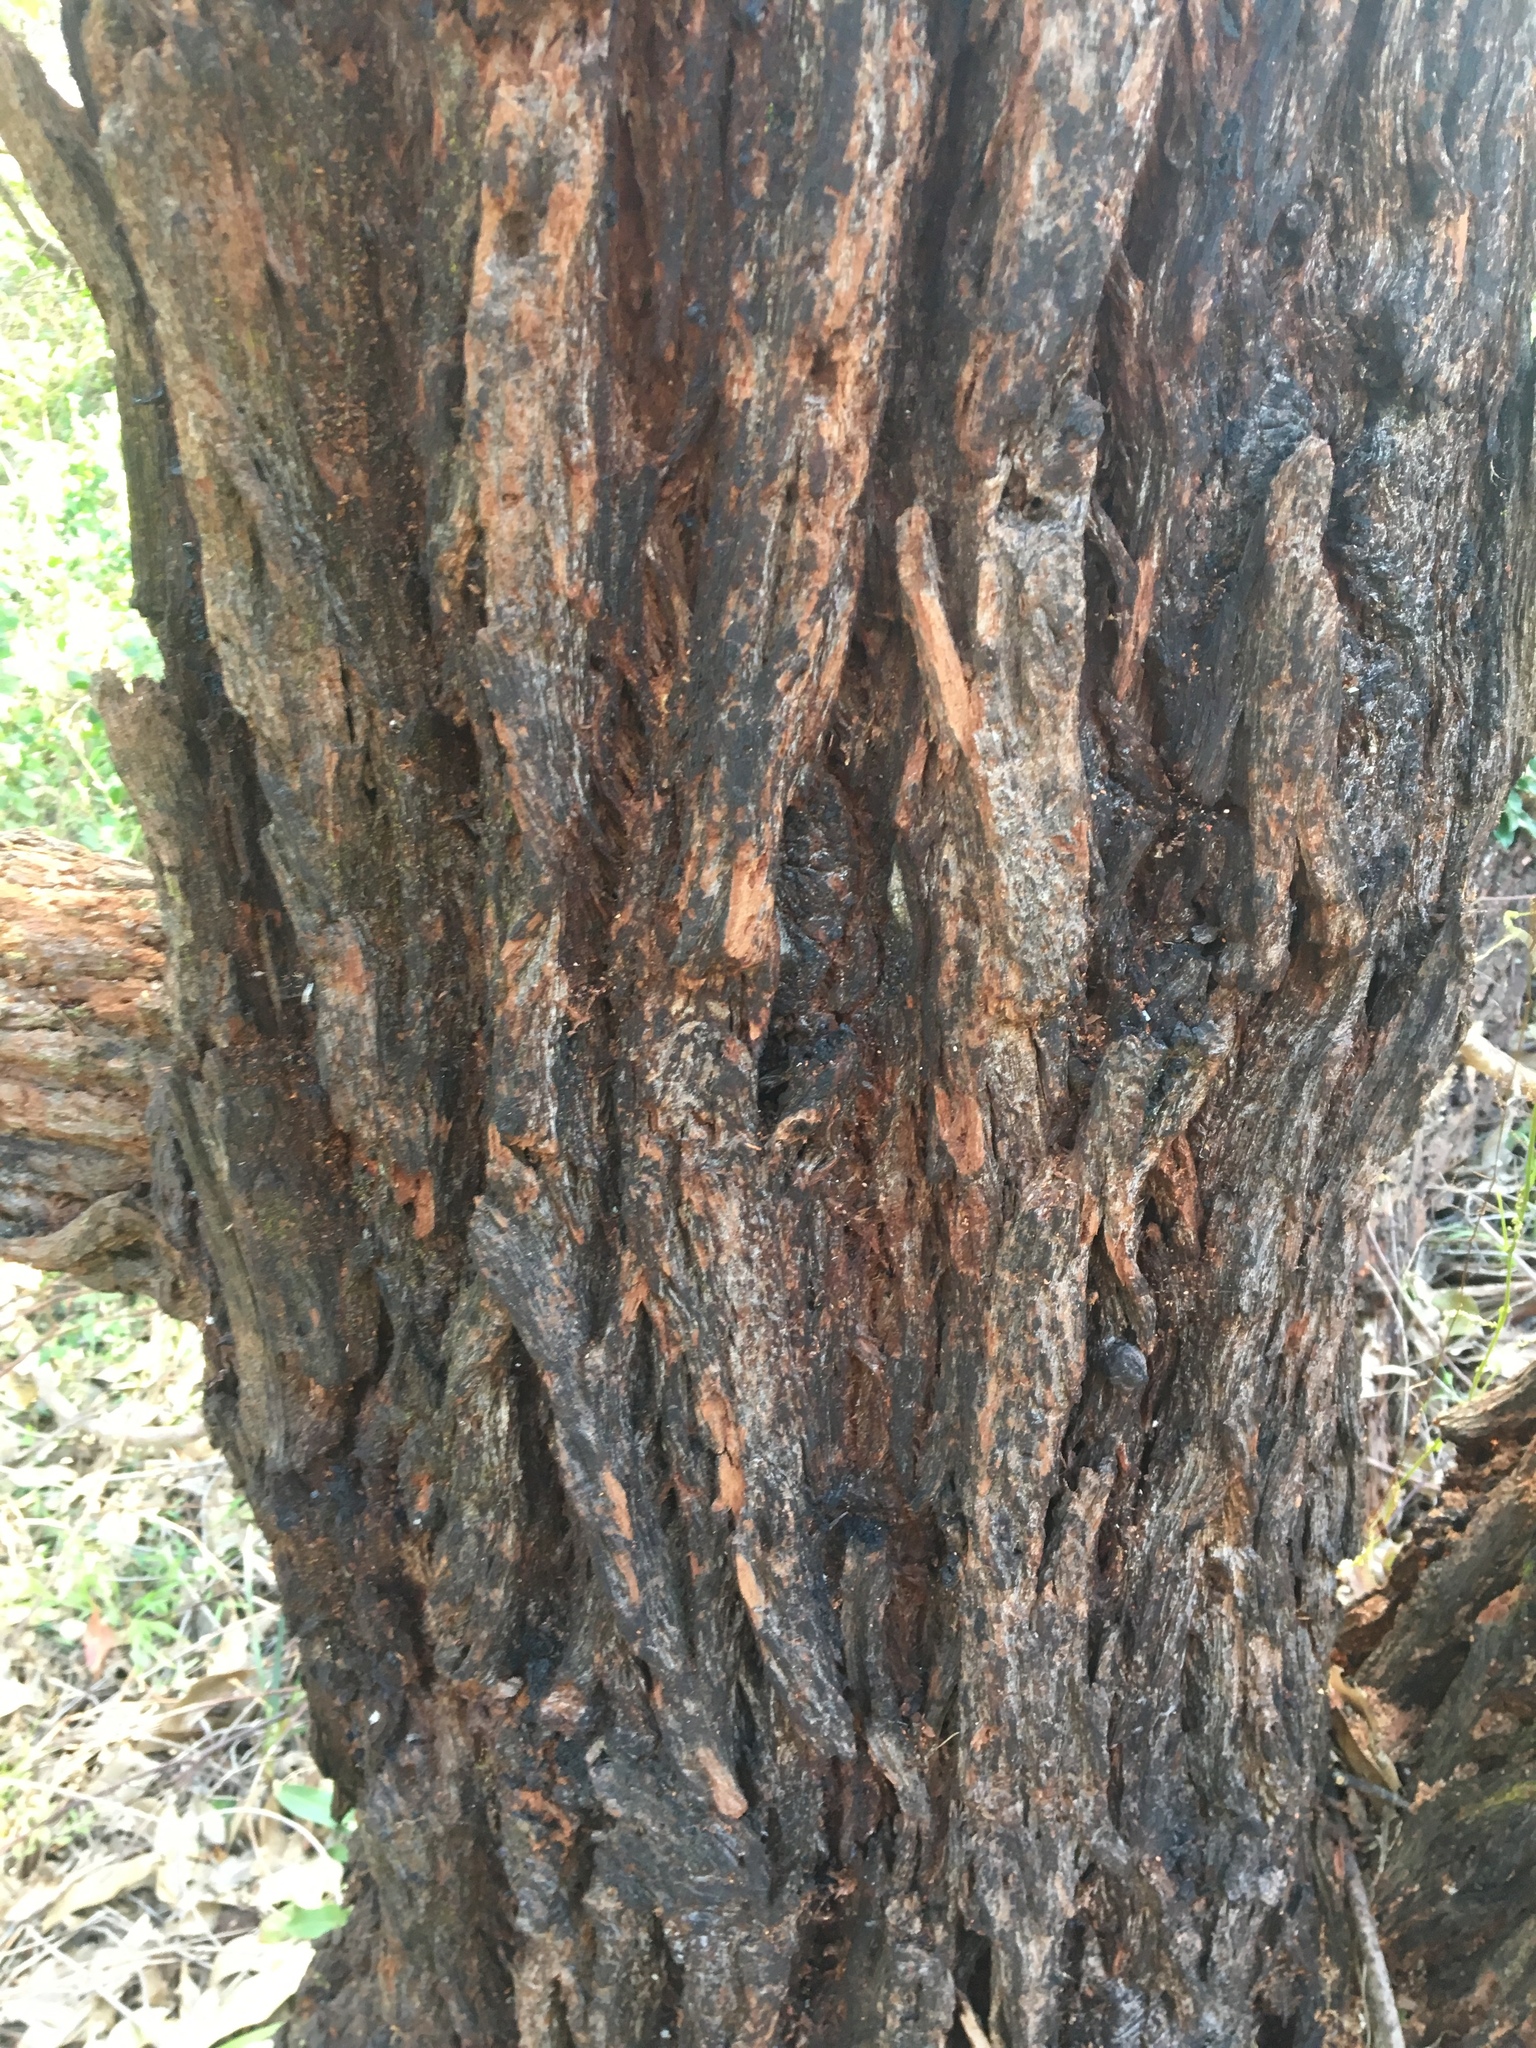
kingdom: Plantae
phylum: Tracheophyta
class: Magnoliopsida
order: Myrtales
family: Myrtaceae
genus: Eucalyptus
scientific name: Eucalyptus robusta
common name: Swampmahogany
